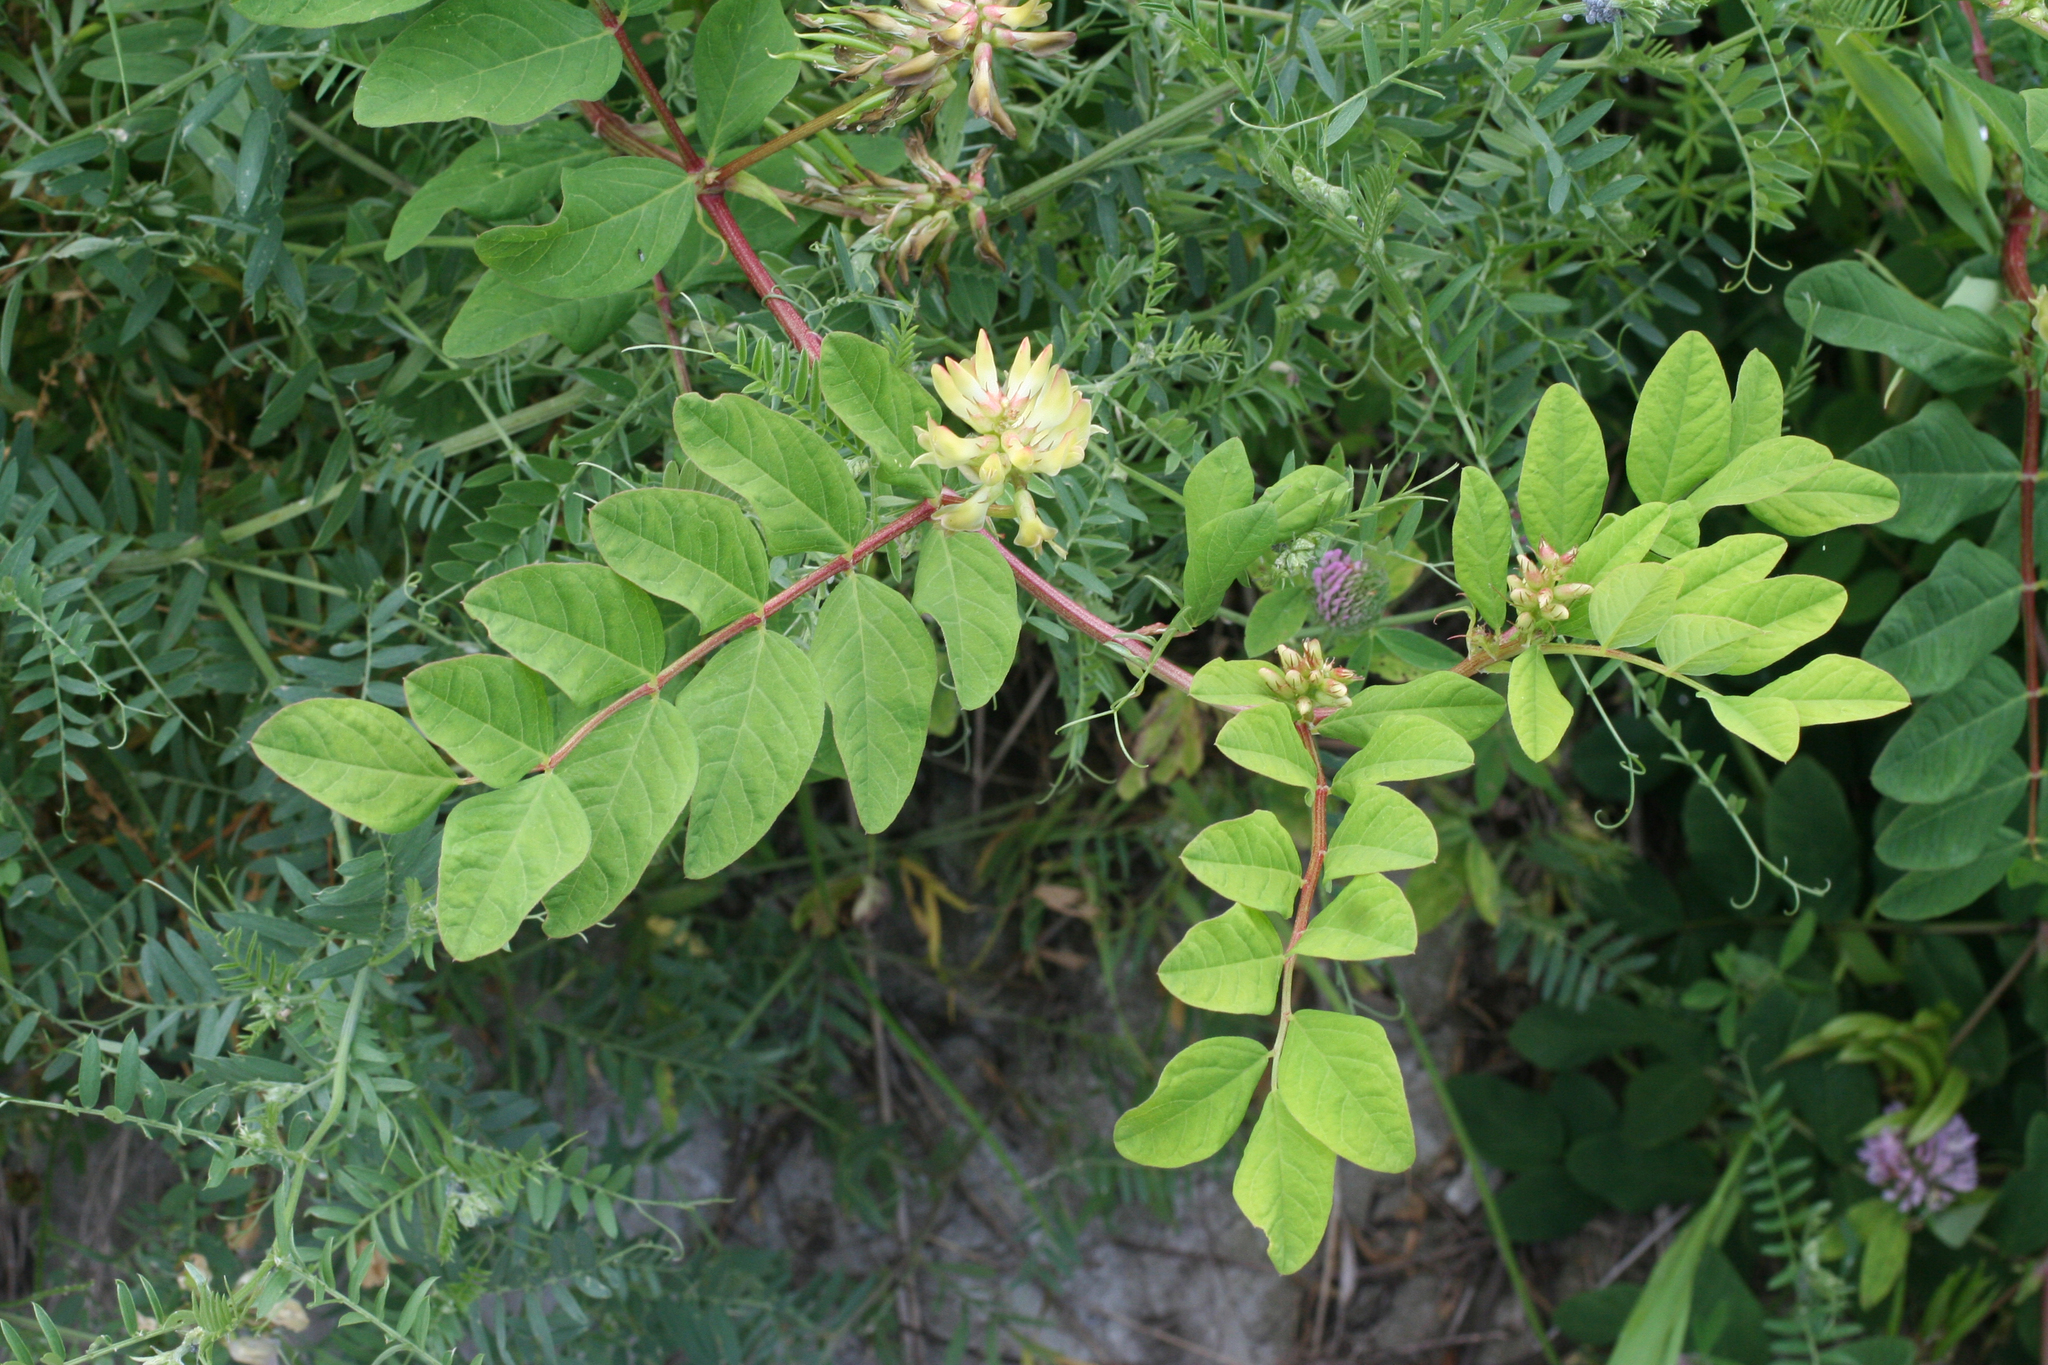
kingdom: Plantae
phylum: Tracheophyta
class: Magnoliopsida
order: Fabales
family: Fabaceae
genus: Astragalus
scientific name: Astragalus glycyphyllos
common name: Wild liquorice
